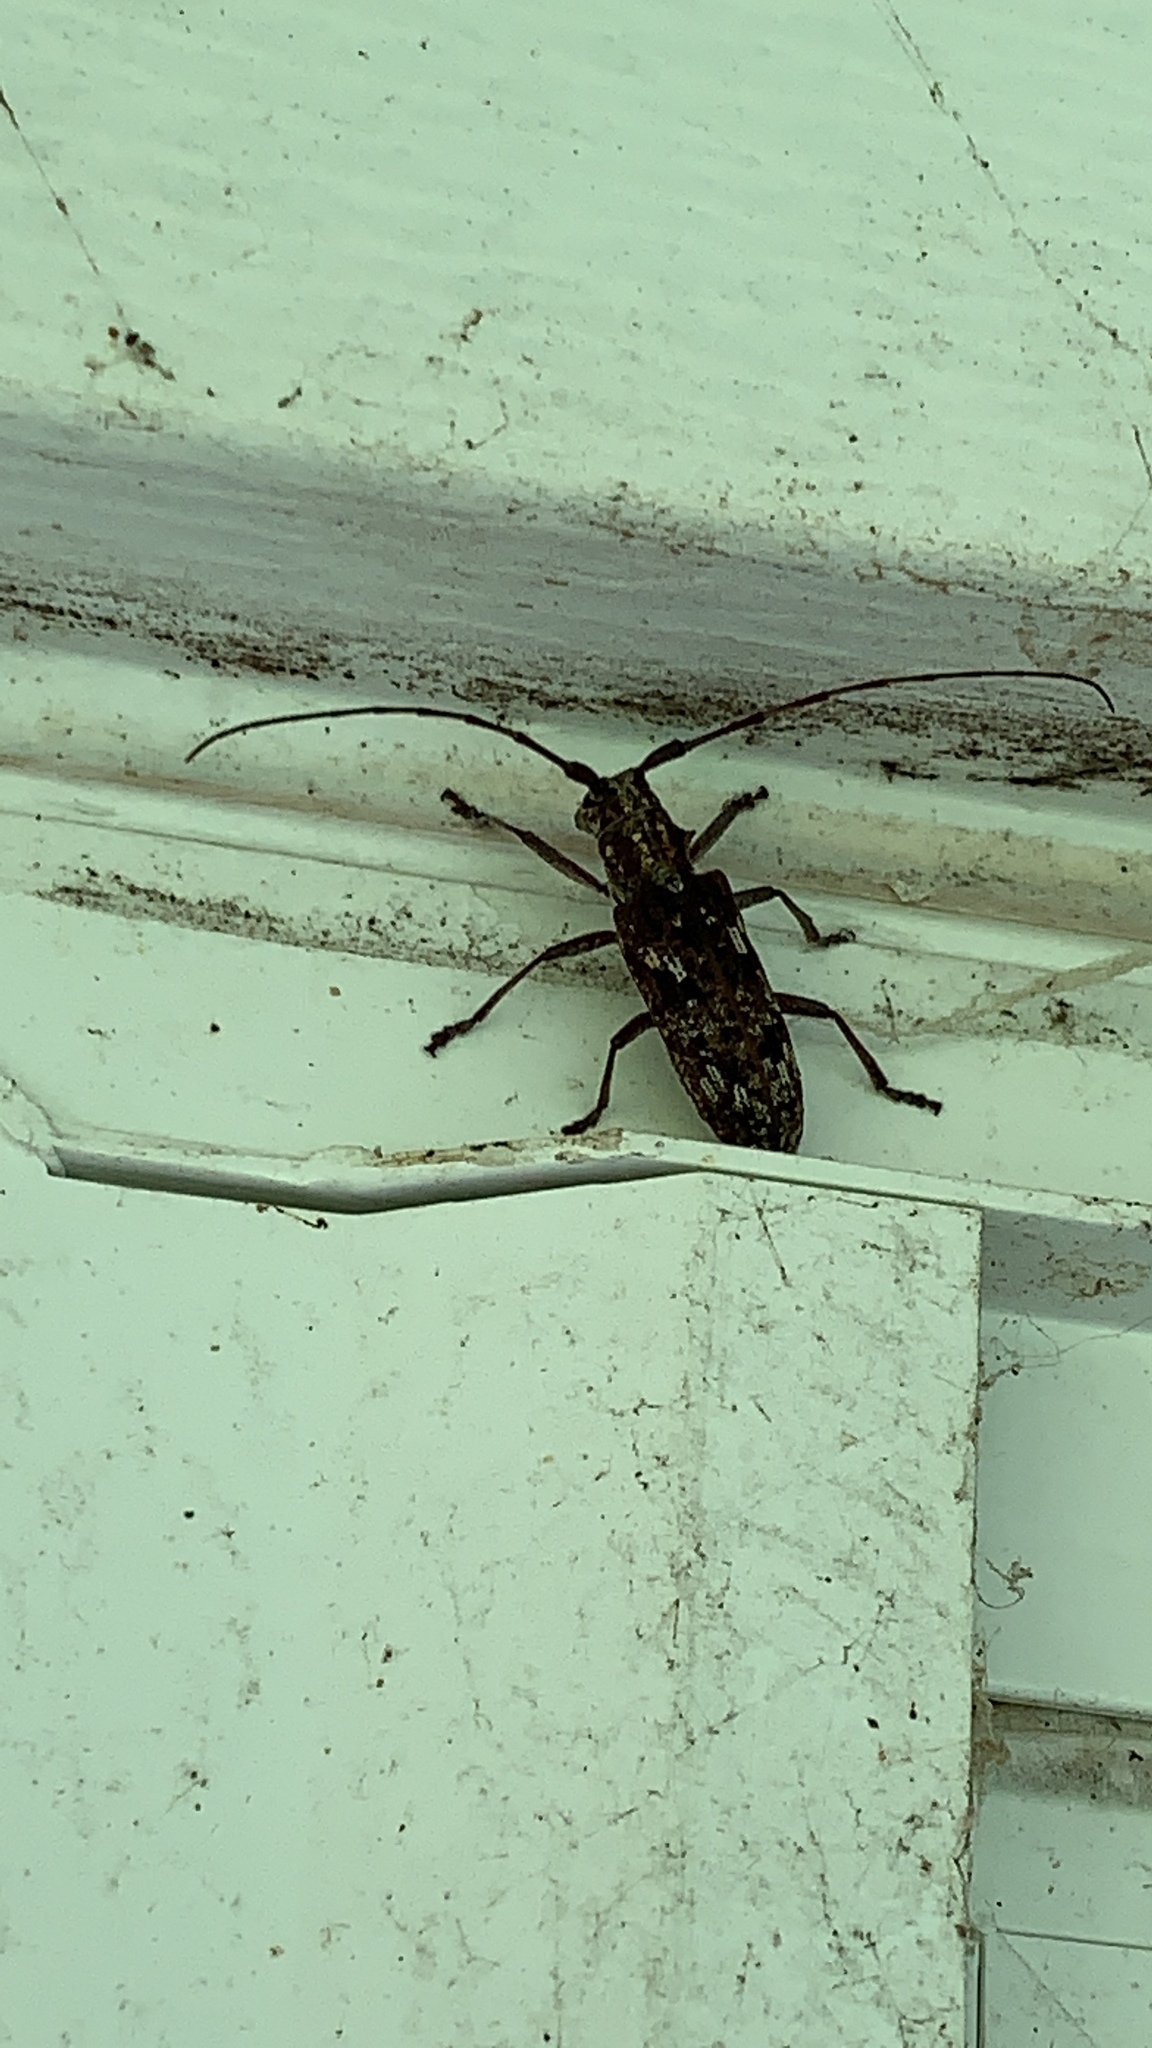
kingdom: Animalia
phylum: Arthropoda
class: Insecta
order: Coleoptera
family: Cerambycidae
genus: Monochamus
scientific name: Monochamus carolinensis
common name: Carolina pine sawyer
